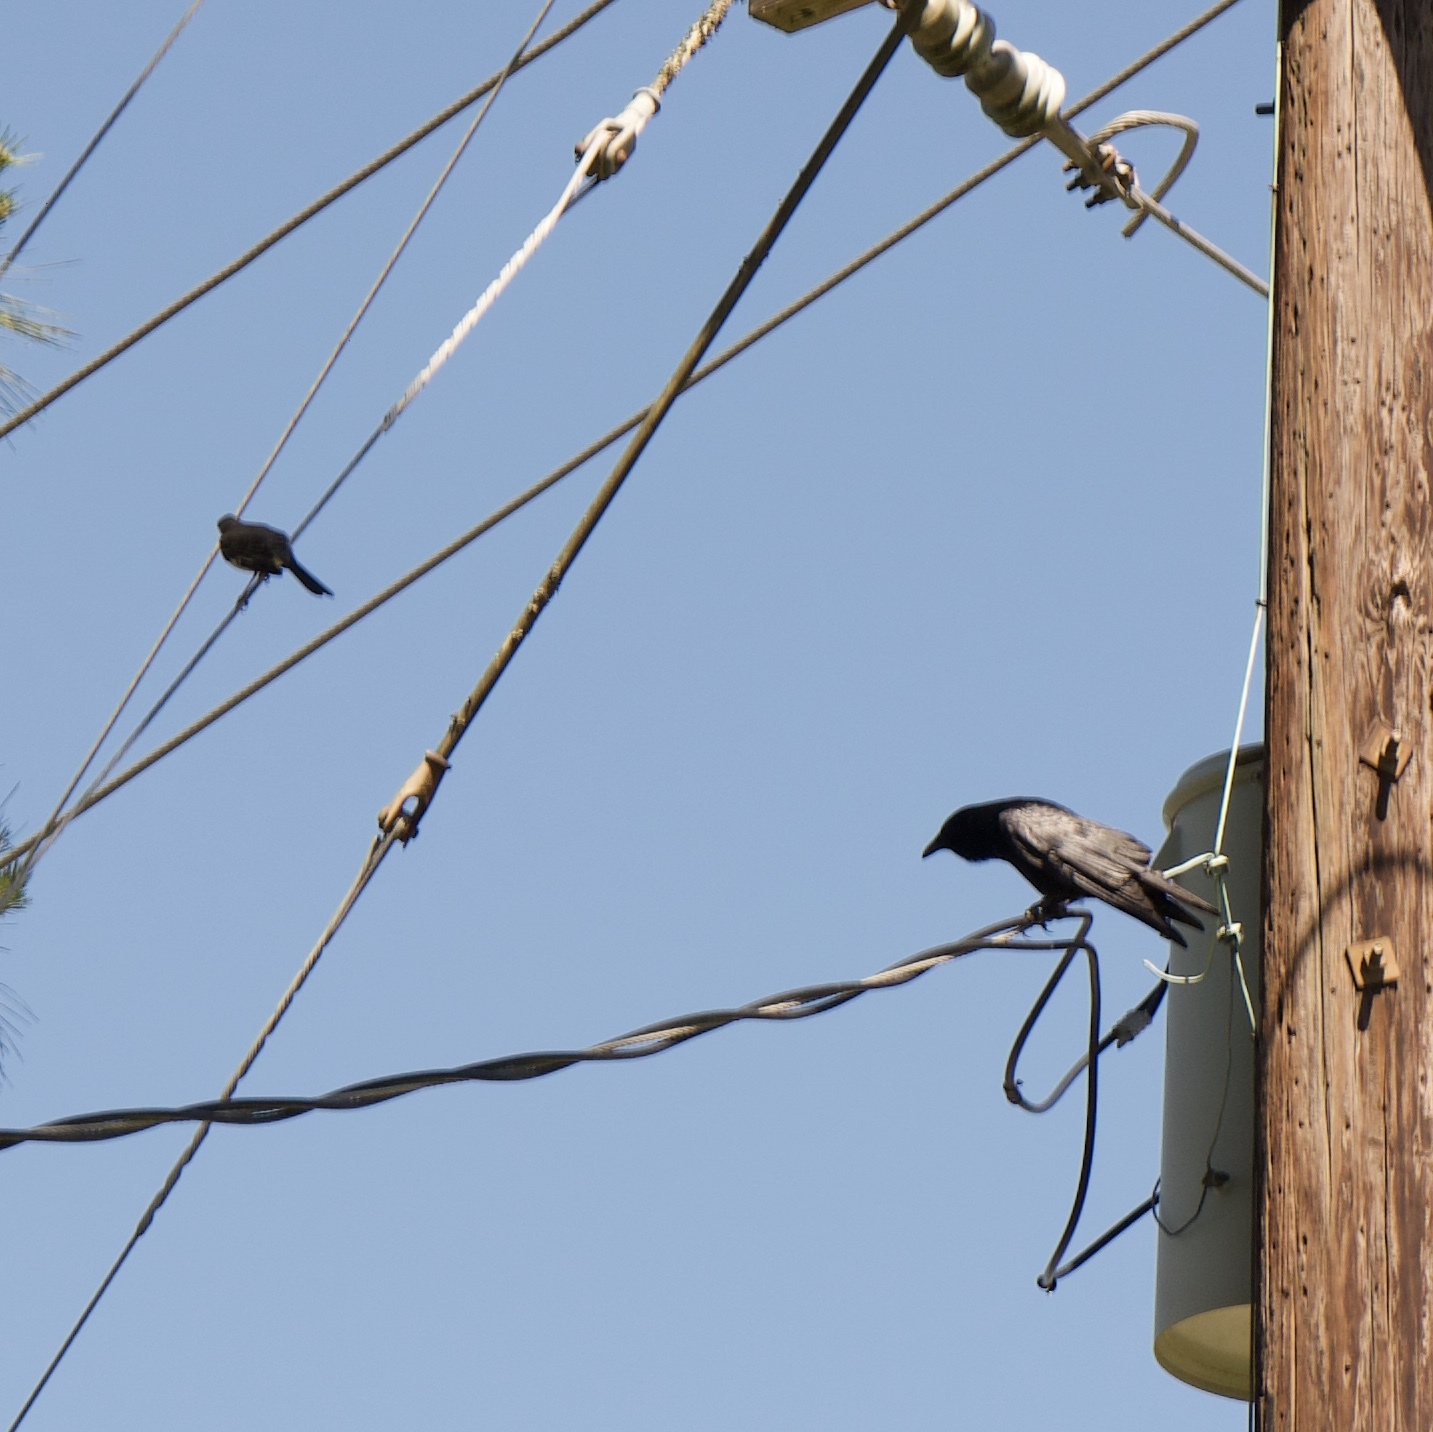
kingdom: Animalia
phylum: Chordata
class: Aves
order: Passeriformes
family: Corvidae
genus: Corvus
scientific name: Corvus brachyrhynchos
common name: American crow
